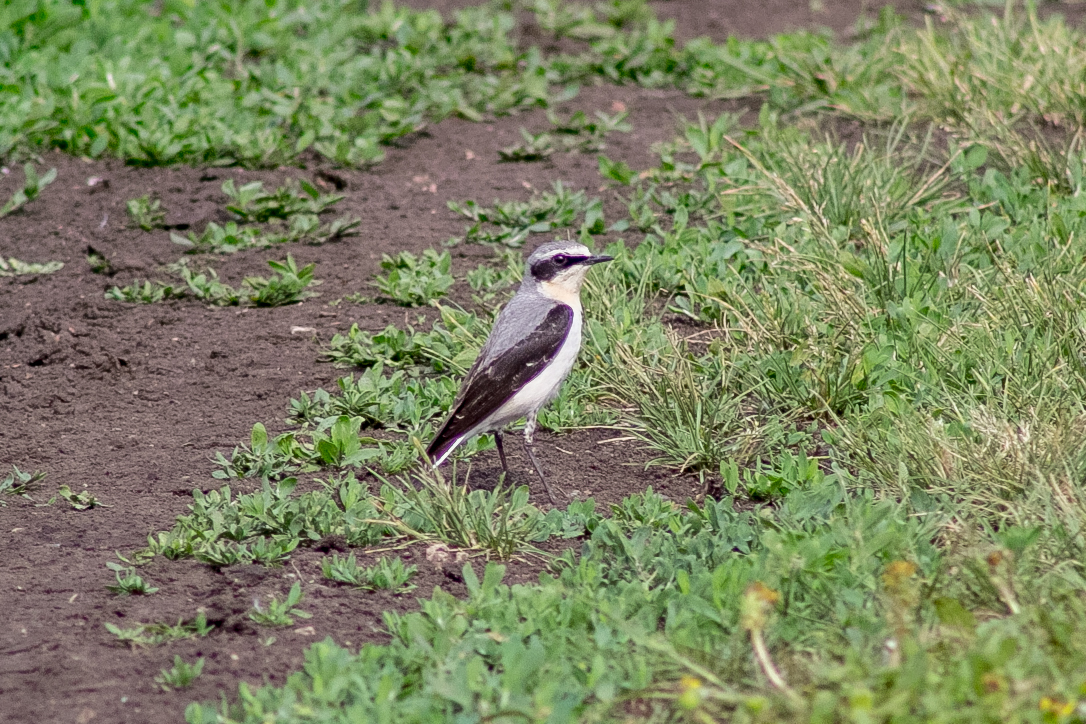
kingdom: Animalia
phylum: Chordata
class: Aves
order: Passeriformes
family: Muscicapidae
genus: Oenanthe
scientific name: Oenanthe oenanthe
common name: Northern wheatear
